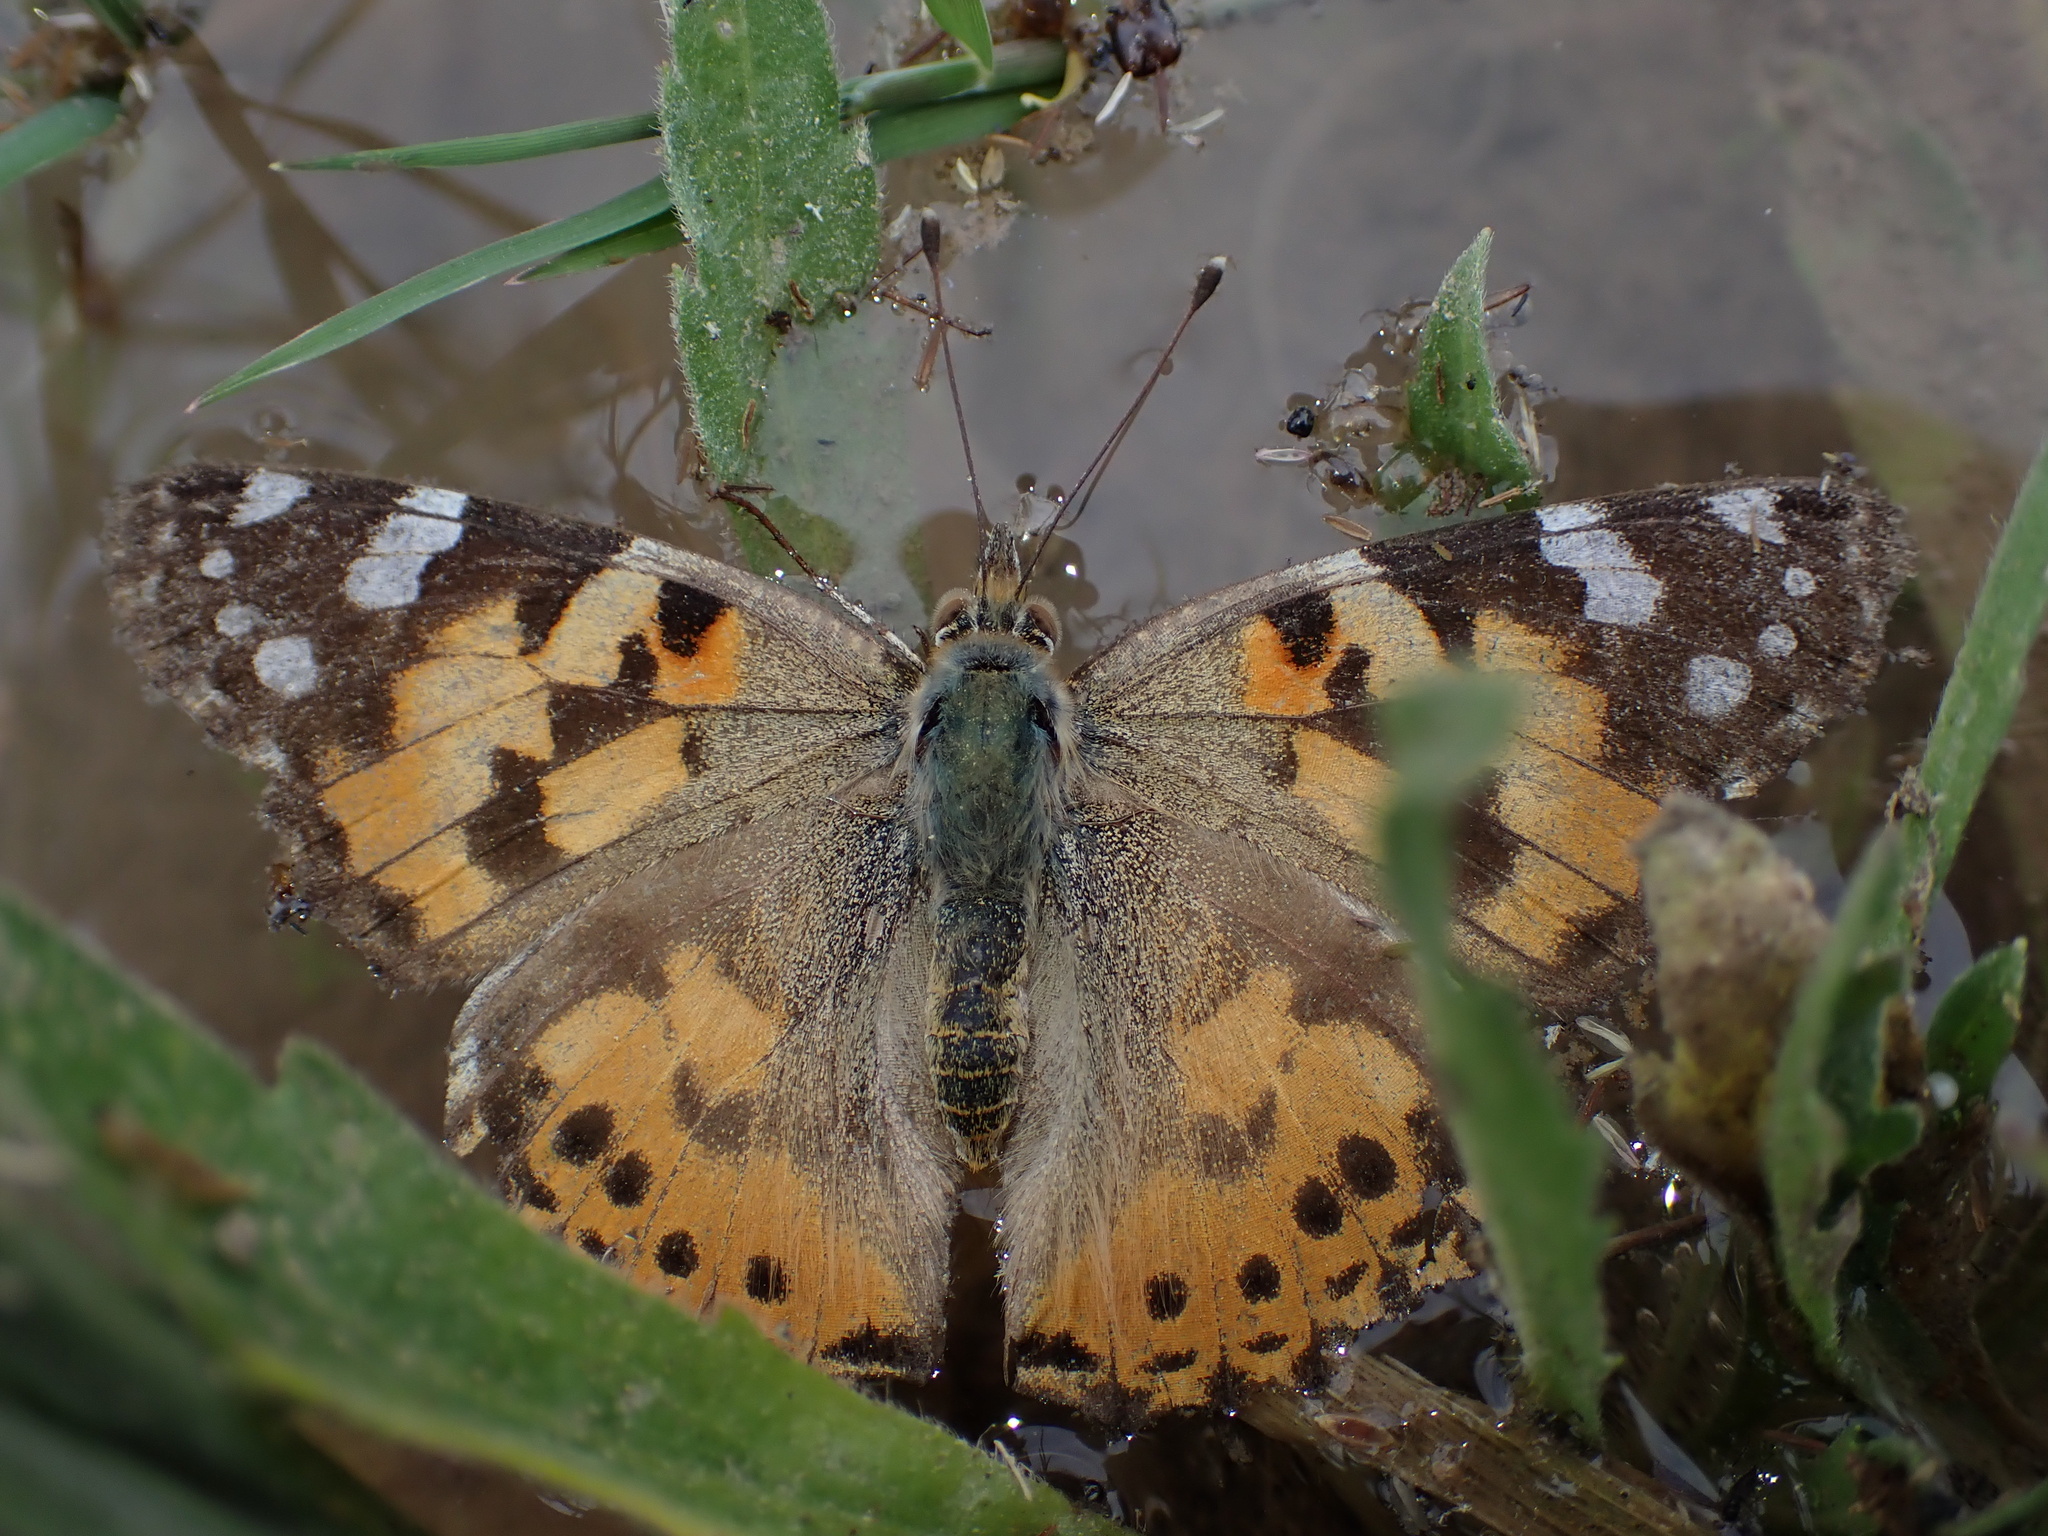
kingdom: Animalia
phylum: Arthropoda
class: Insecta
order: Lepidoptera
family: Nymphalidae
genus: Vanessa
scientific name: Vanessa cardui
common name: Painted lady
